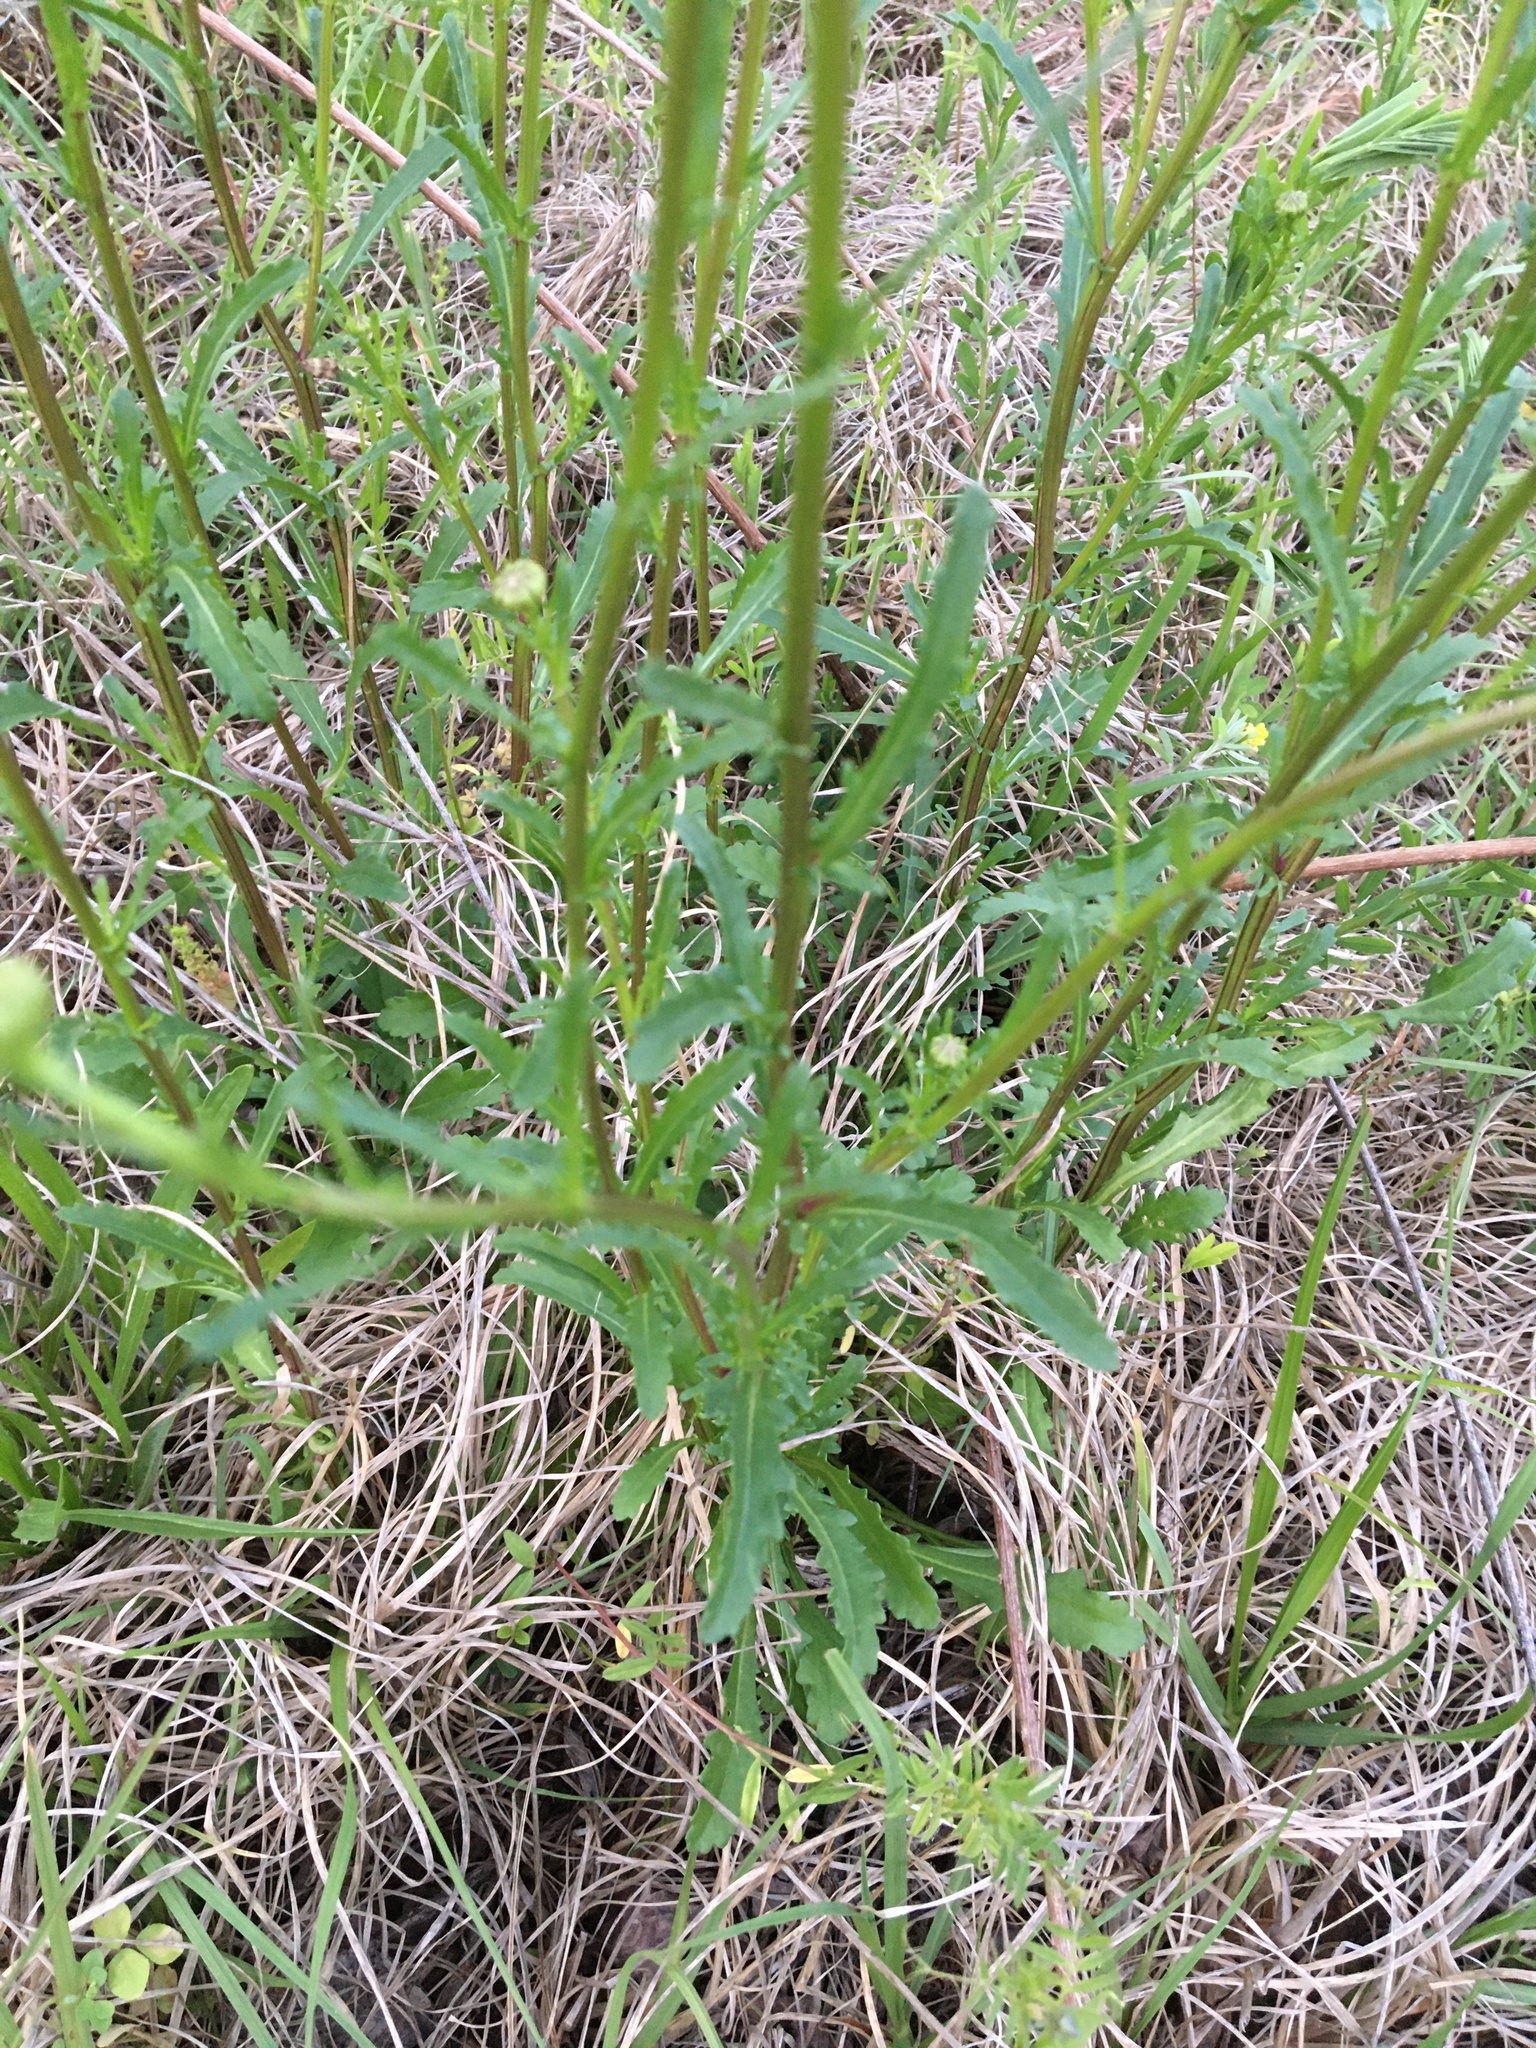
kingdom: Plantae
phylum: Tracheophyta
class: Magnoliopsida
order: Asterales
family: Asteraceae
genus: Leucanthemum
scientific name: Leucanthemum vulgare
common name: Oxeye daisy
